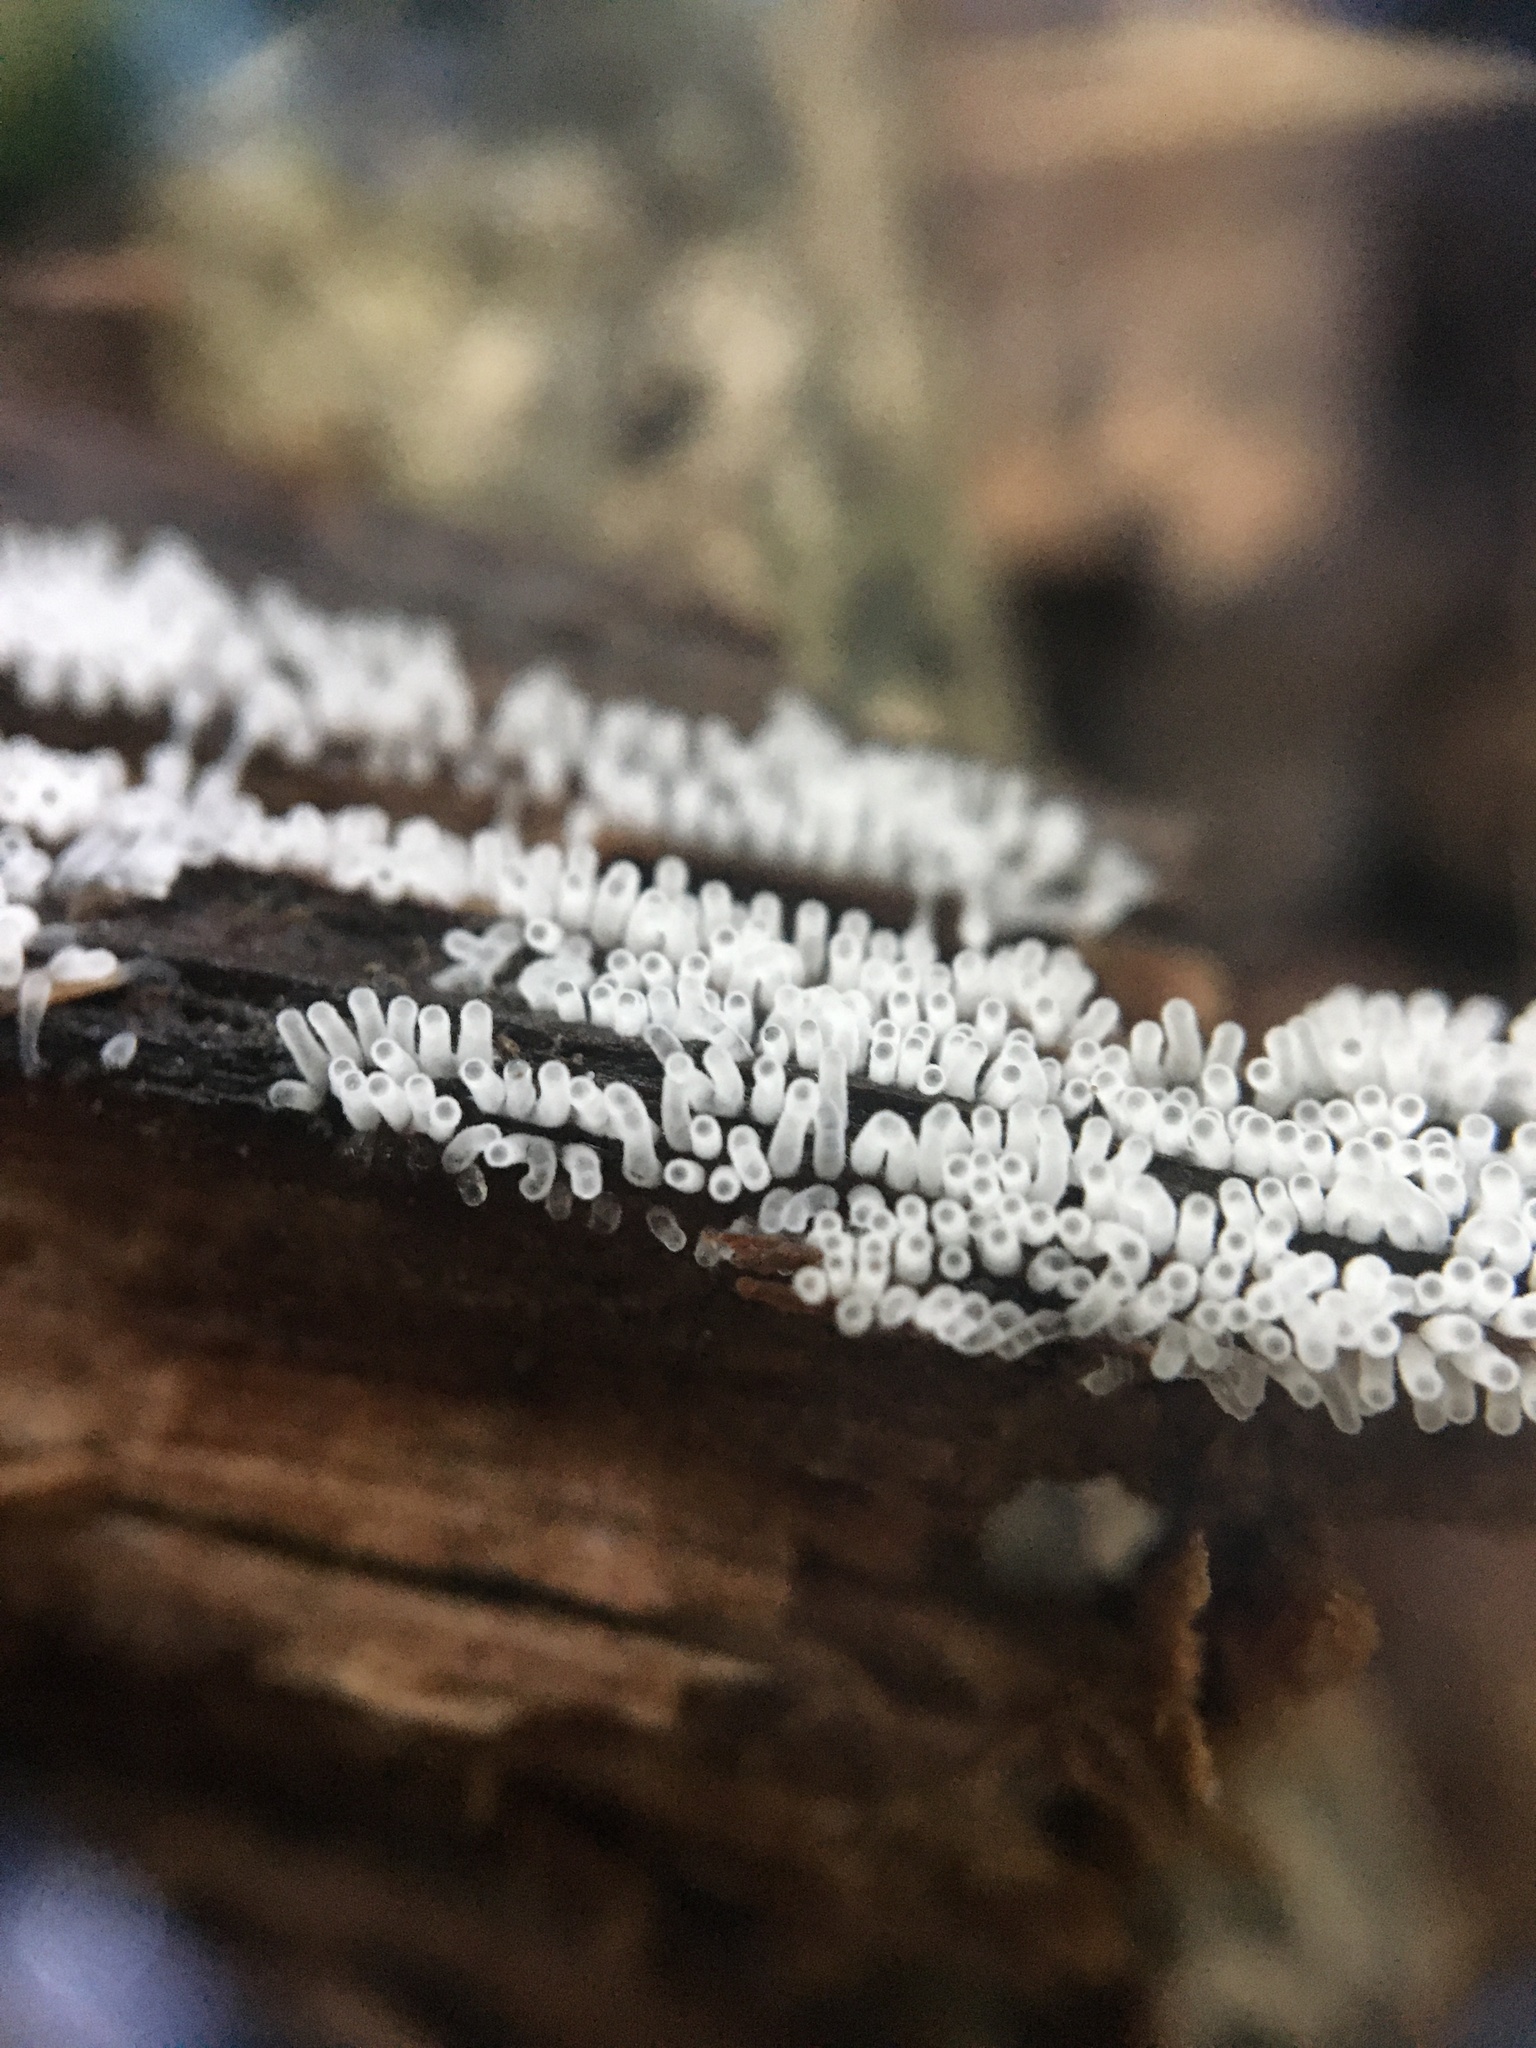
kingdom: Protozoa
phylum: Mycetozoa
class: Protosteliomycetes
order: Ceratiomyxales
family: Ceratiomyxaceae
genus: Ceratiomyxa
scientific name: Ceratiomyxa fruticulosa
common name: Honeycomb coral slime mold
